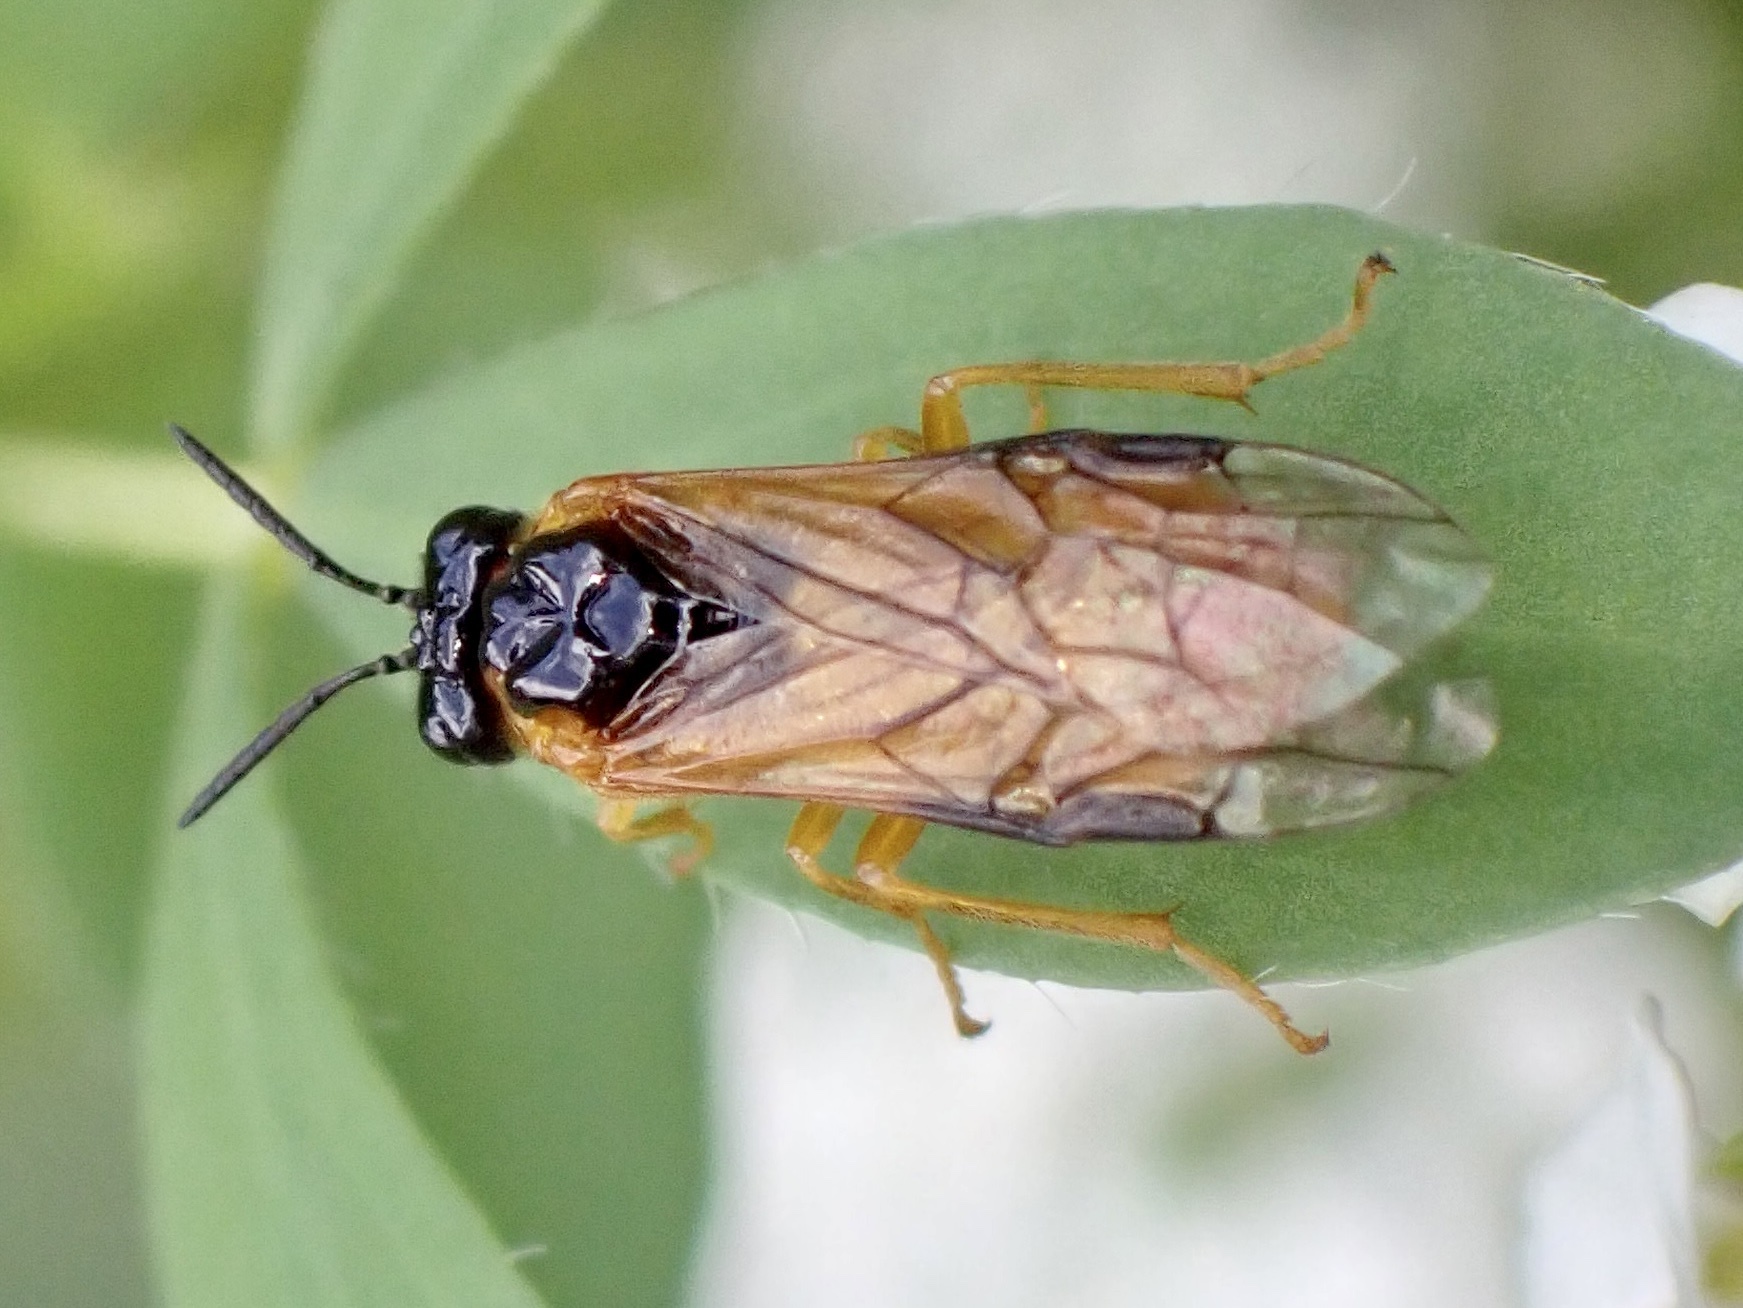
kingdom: Animalia
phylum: Arthropoda
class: Insecta
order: Hymenoptera
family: Tenthredinidae
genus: Selandria
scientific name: Selandria serva
